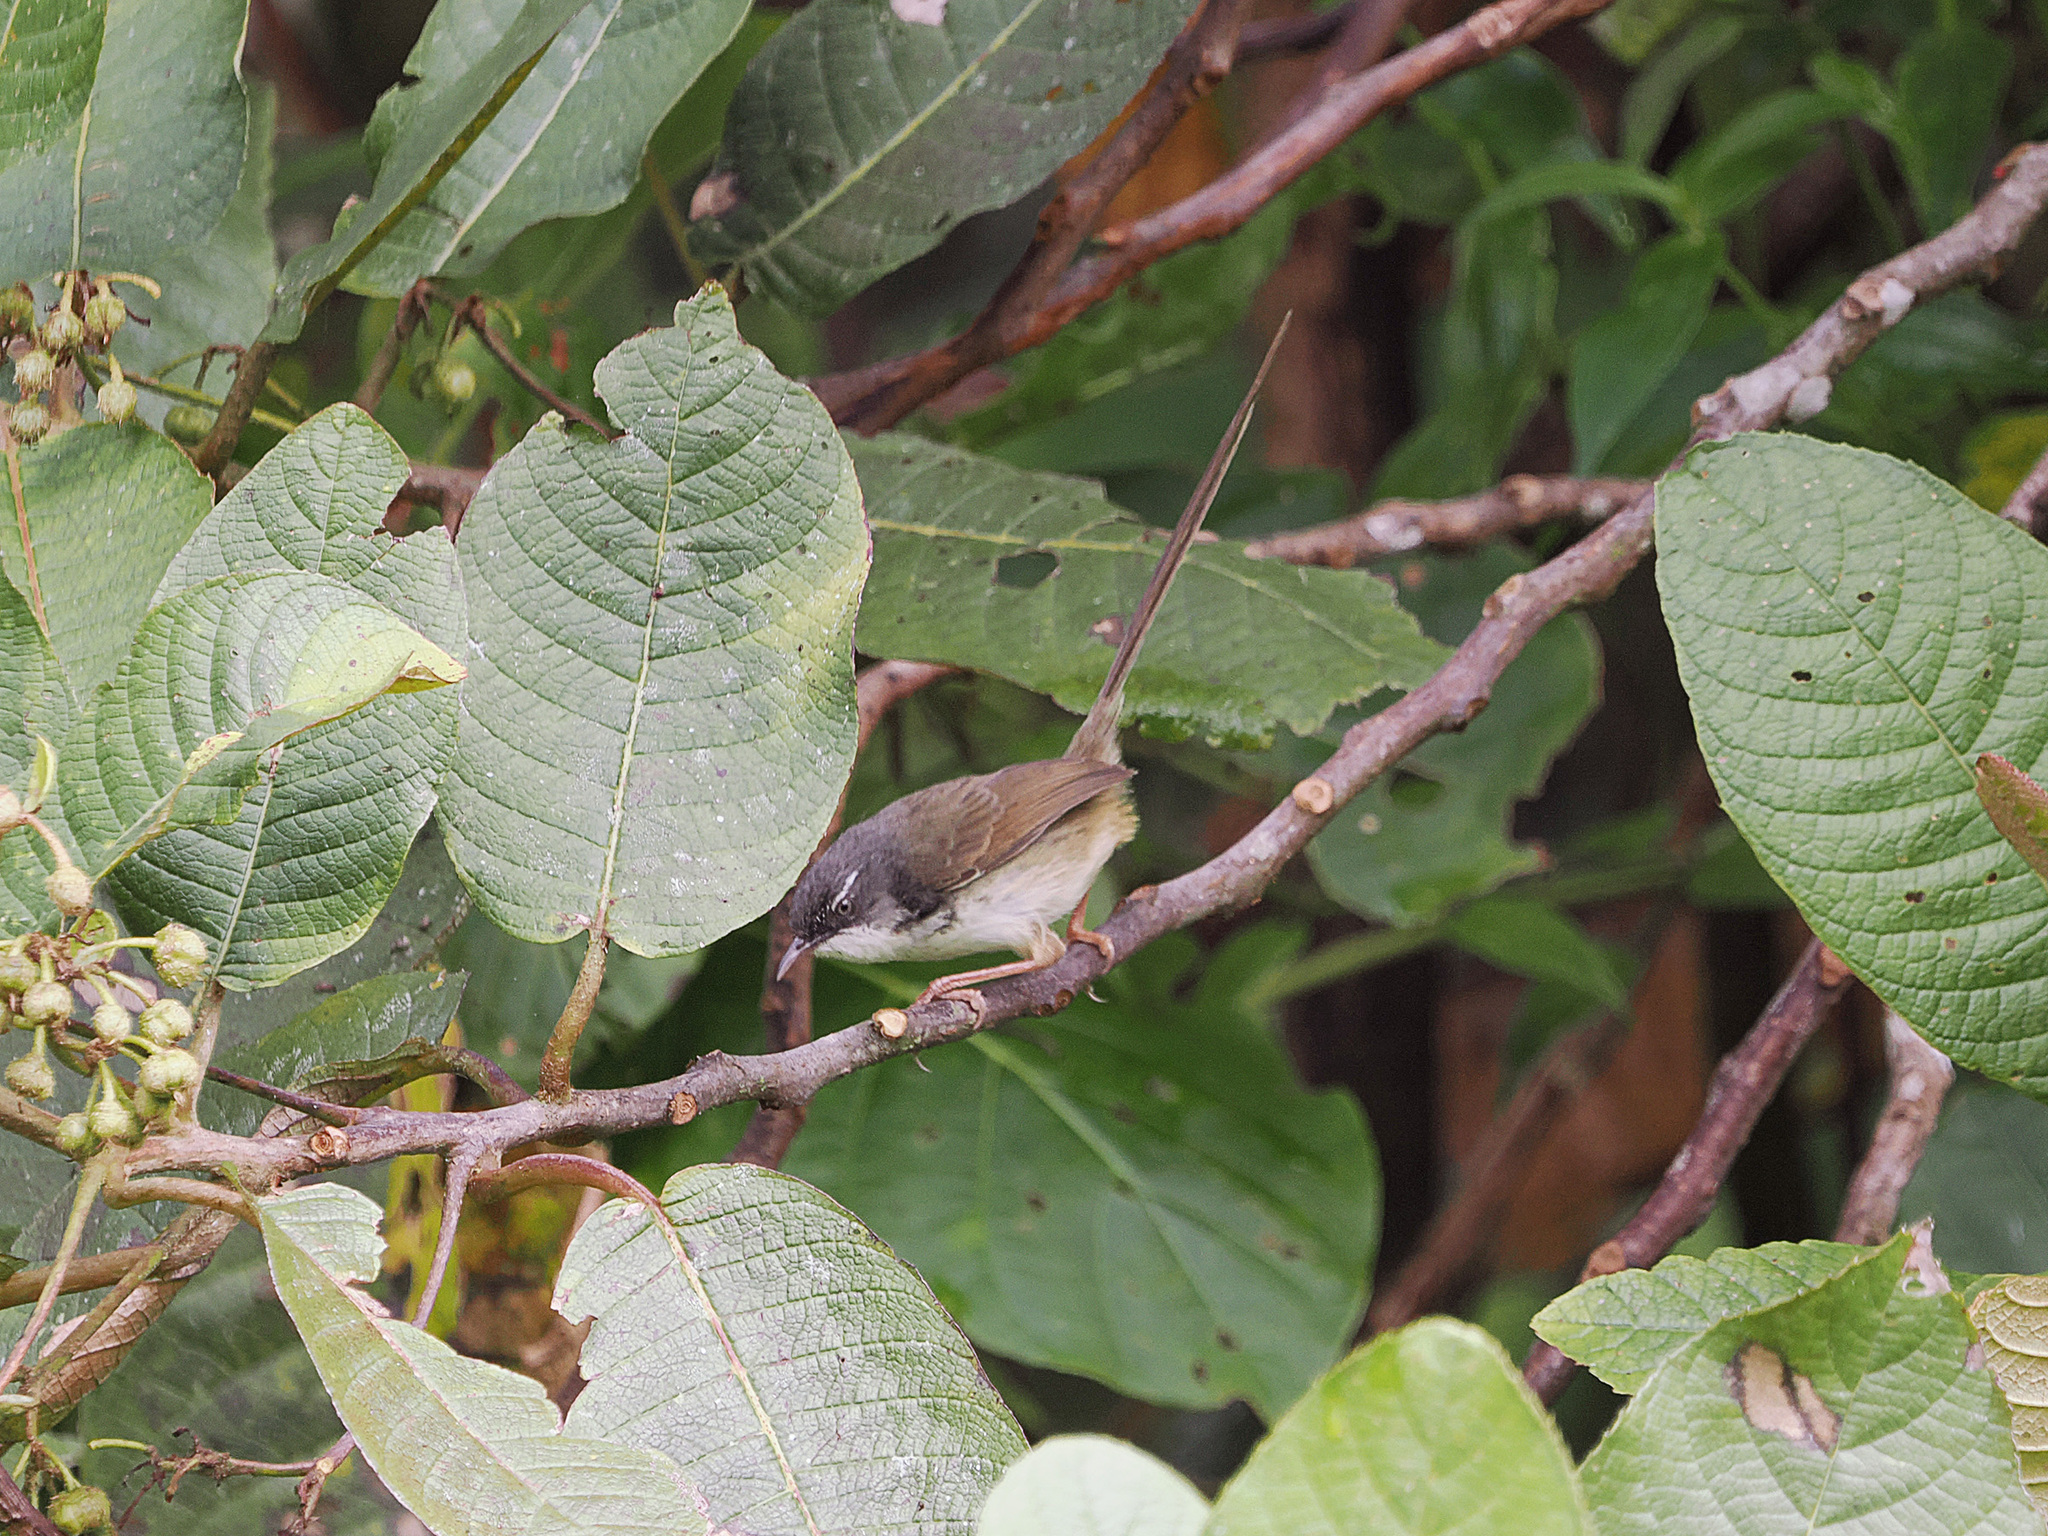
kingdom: Animalia
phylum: Chordata
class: Aves
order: Passeriformes
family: Cisticolidae
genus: Prinia
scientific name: Prinia superciliaris
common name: Hill prinia
